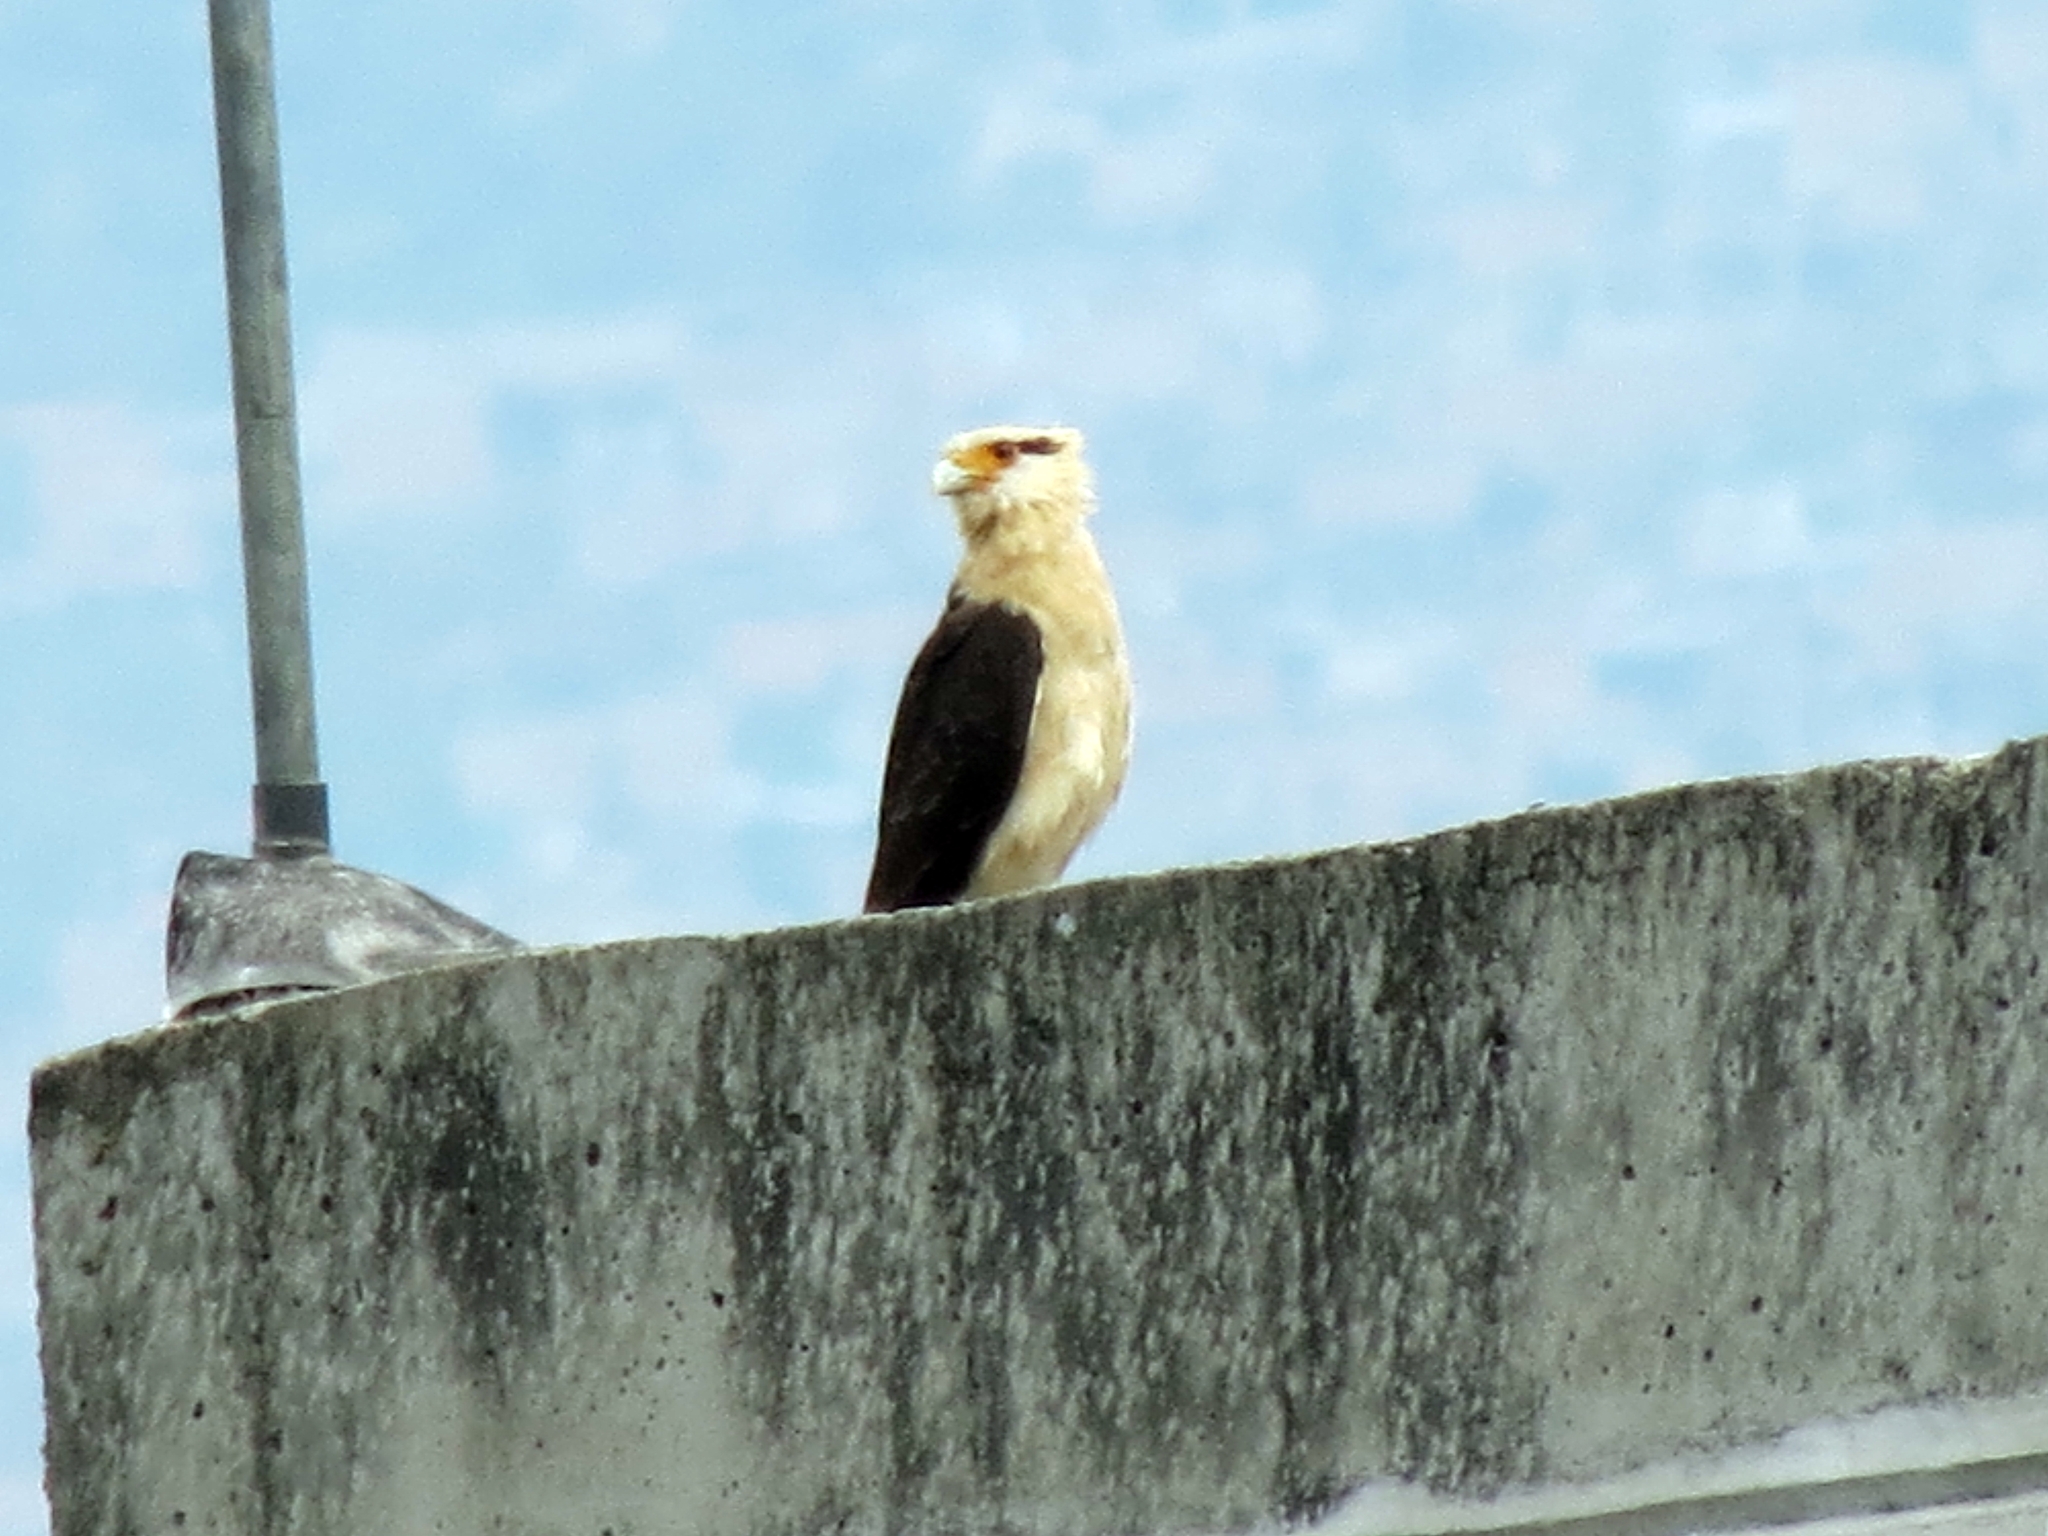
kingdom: Animalia
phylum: Chordata
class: Aves
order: Falconiformes
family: Falconidae
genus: Daptrius
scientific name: Daptrius
